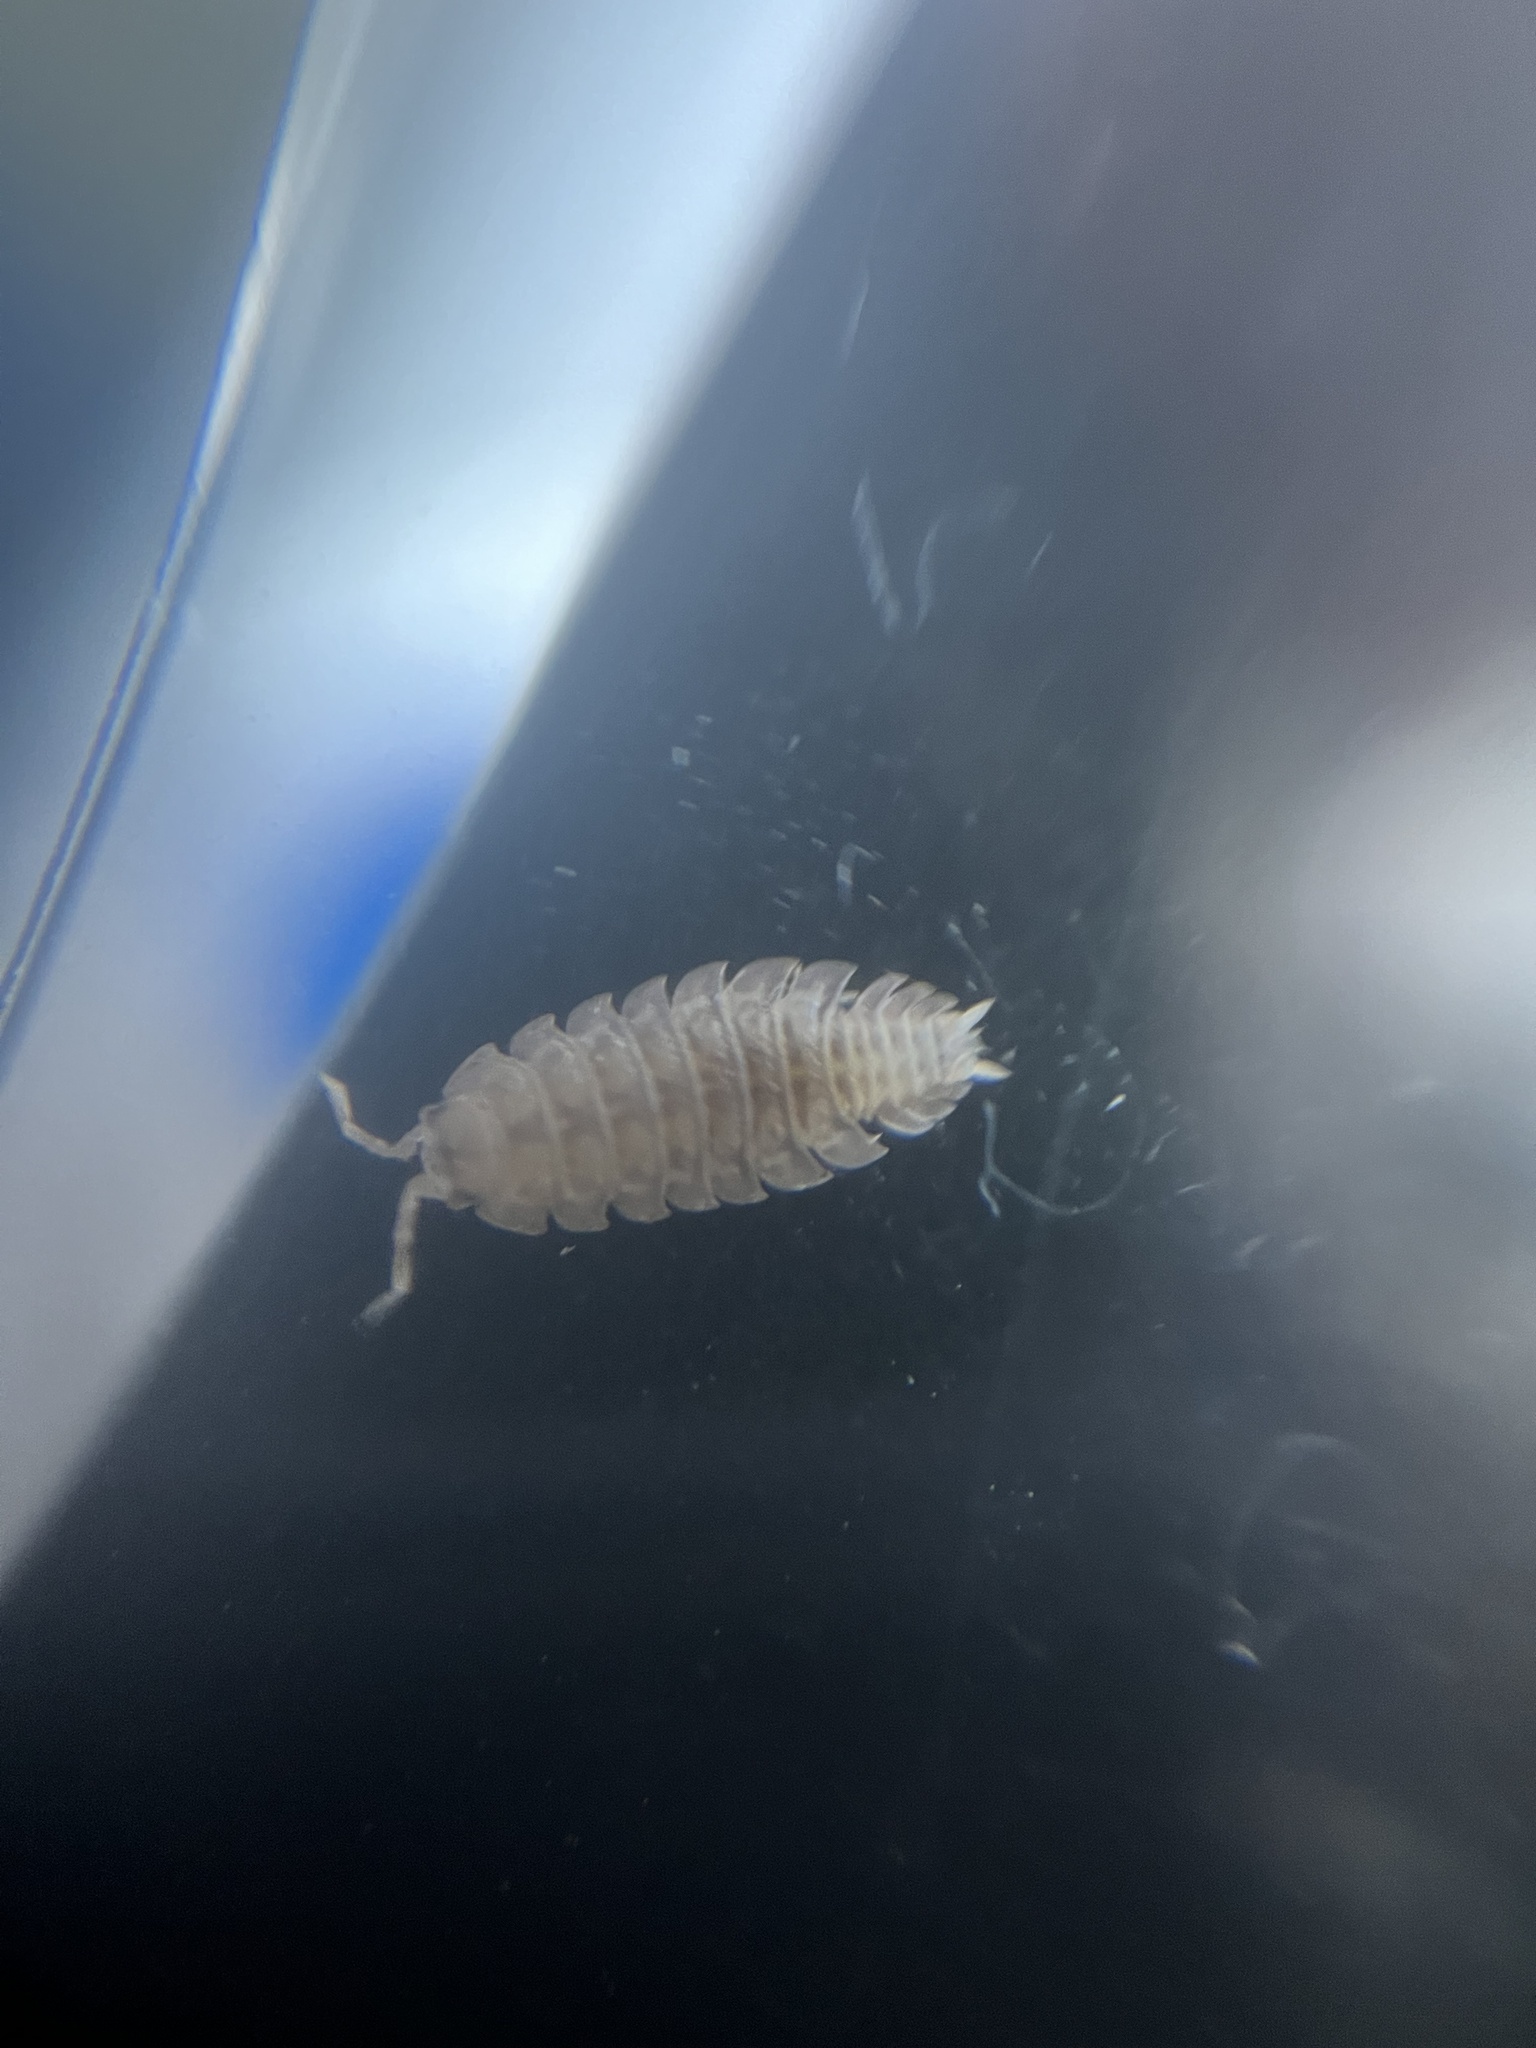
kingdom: Animalia
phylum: Arthropoda
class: Malacostraca
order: Isopoda
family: Porcellionidae
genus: Porcellio
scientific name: Porcellio dilatatus
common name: Isopod
